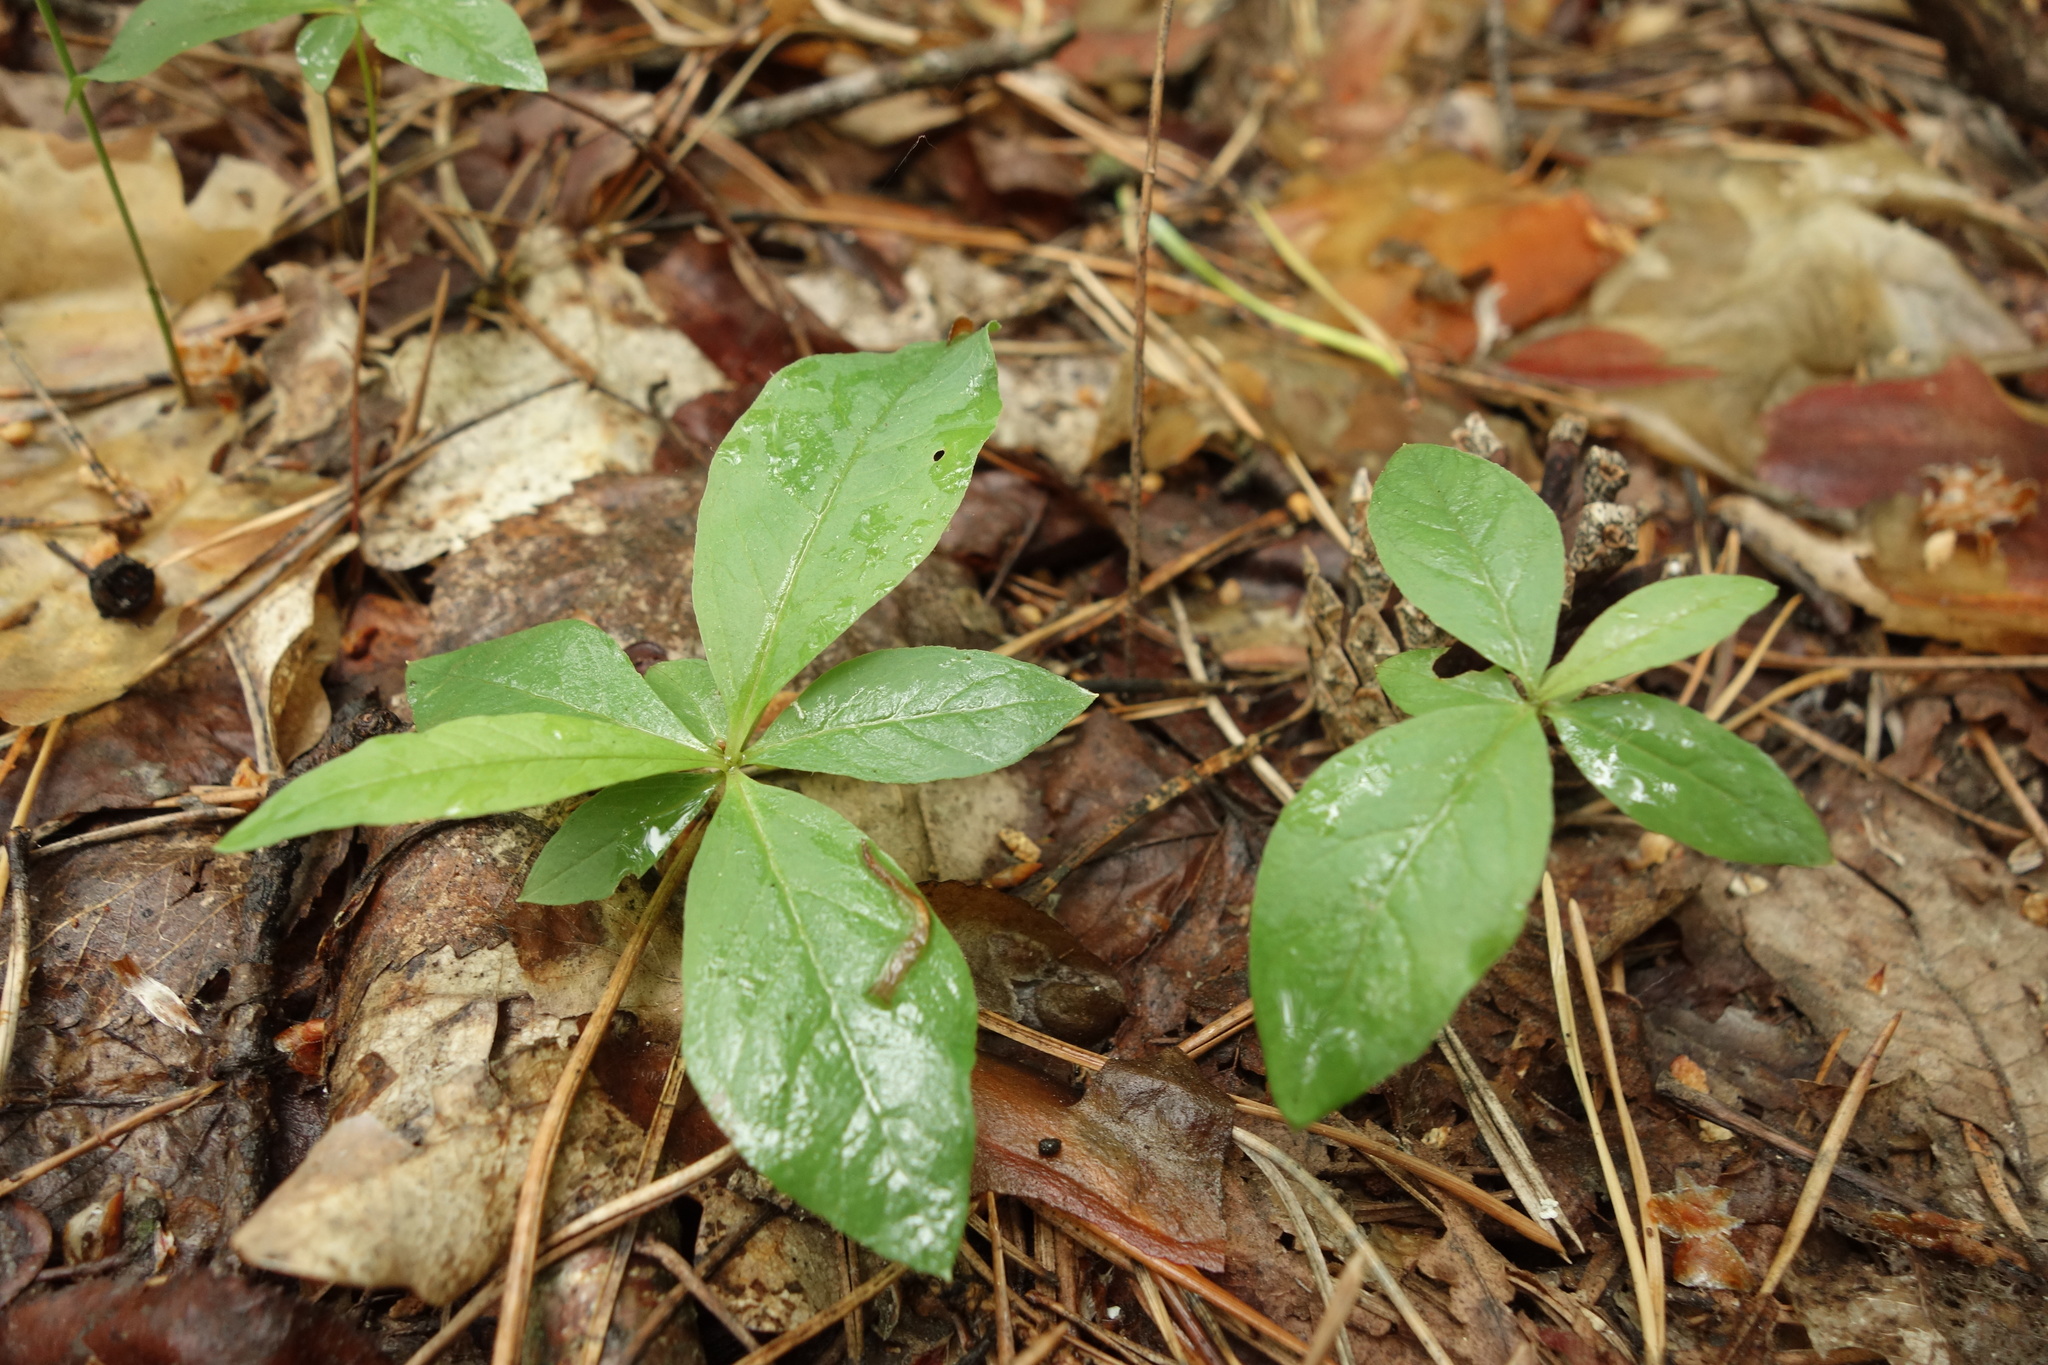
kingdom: Plantae
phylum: Tracheophyta
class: Magnoliopsida
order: Ericales
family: Primulaceae
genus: Lysimachia
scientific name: Lysimachia europaea
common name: Arctic starflower
